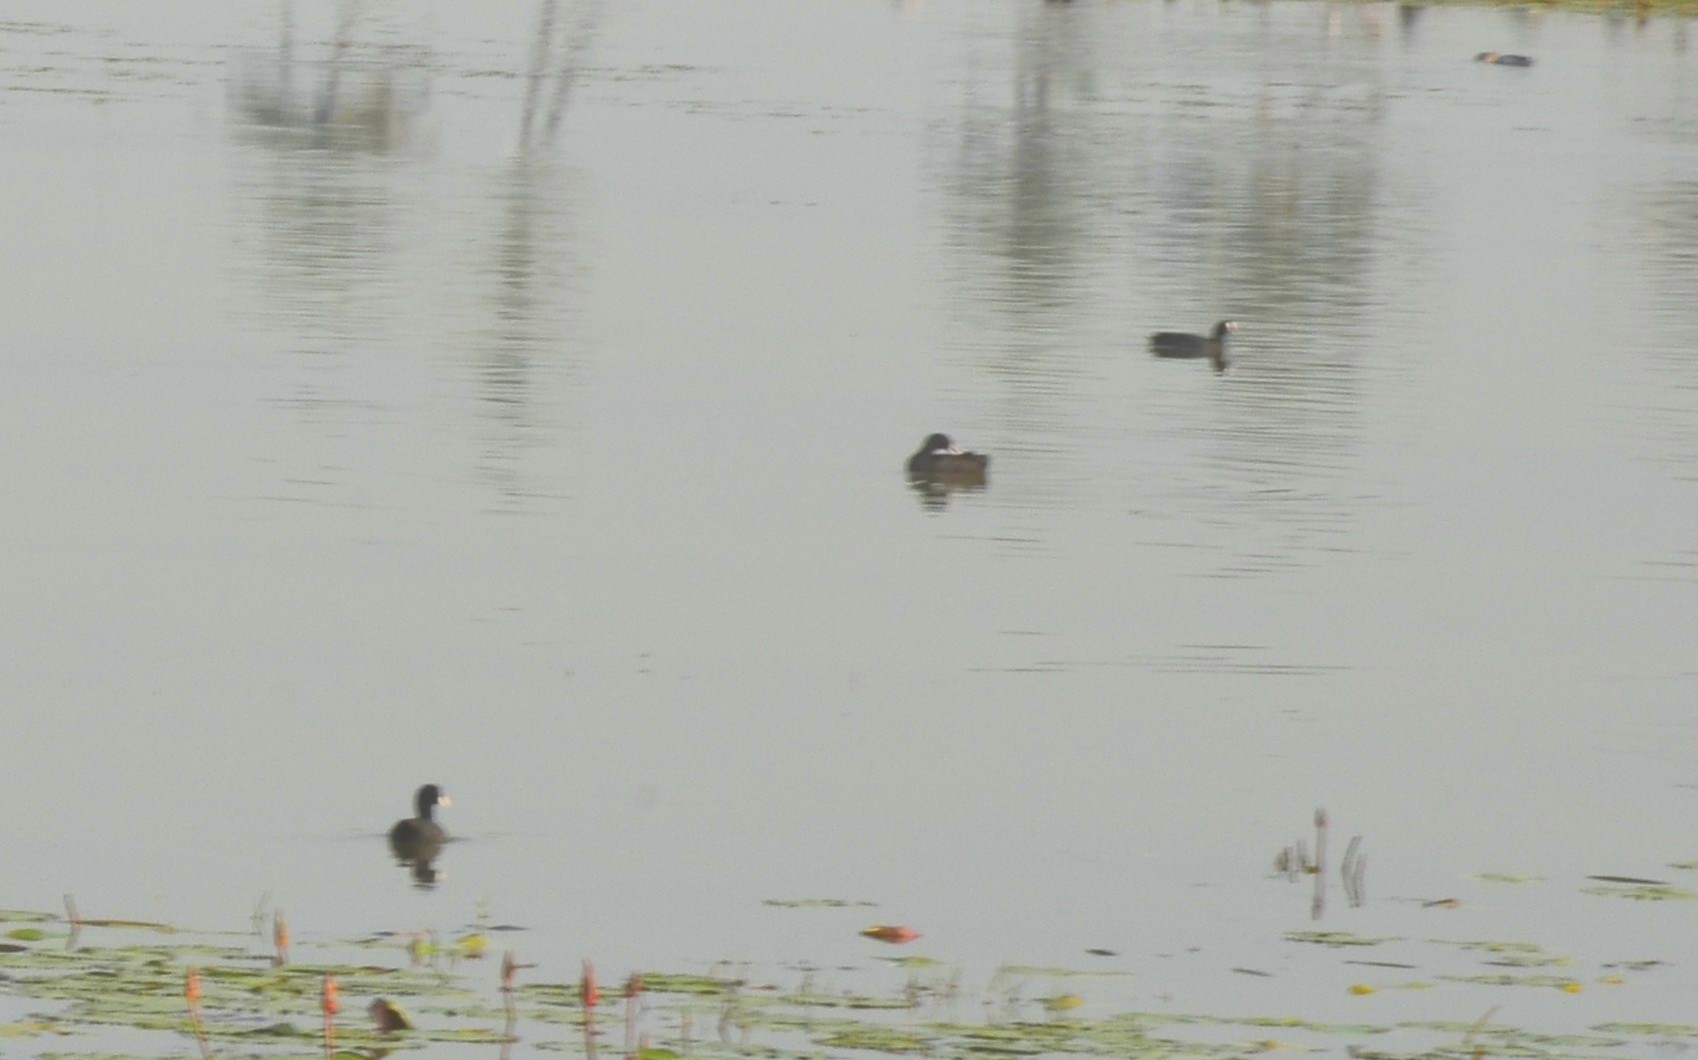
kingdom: Animalia
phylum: Chordata
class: Aves
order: Gruiformes
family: Rallidae
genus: Fulica
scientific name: Fulica atra
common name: Eurasian coot
